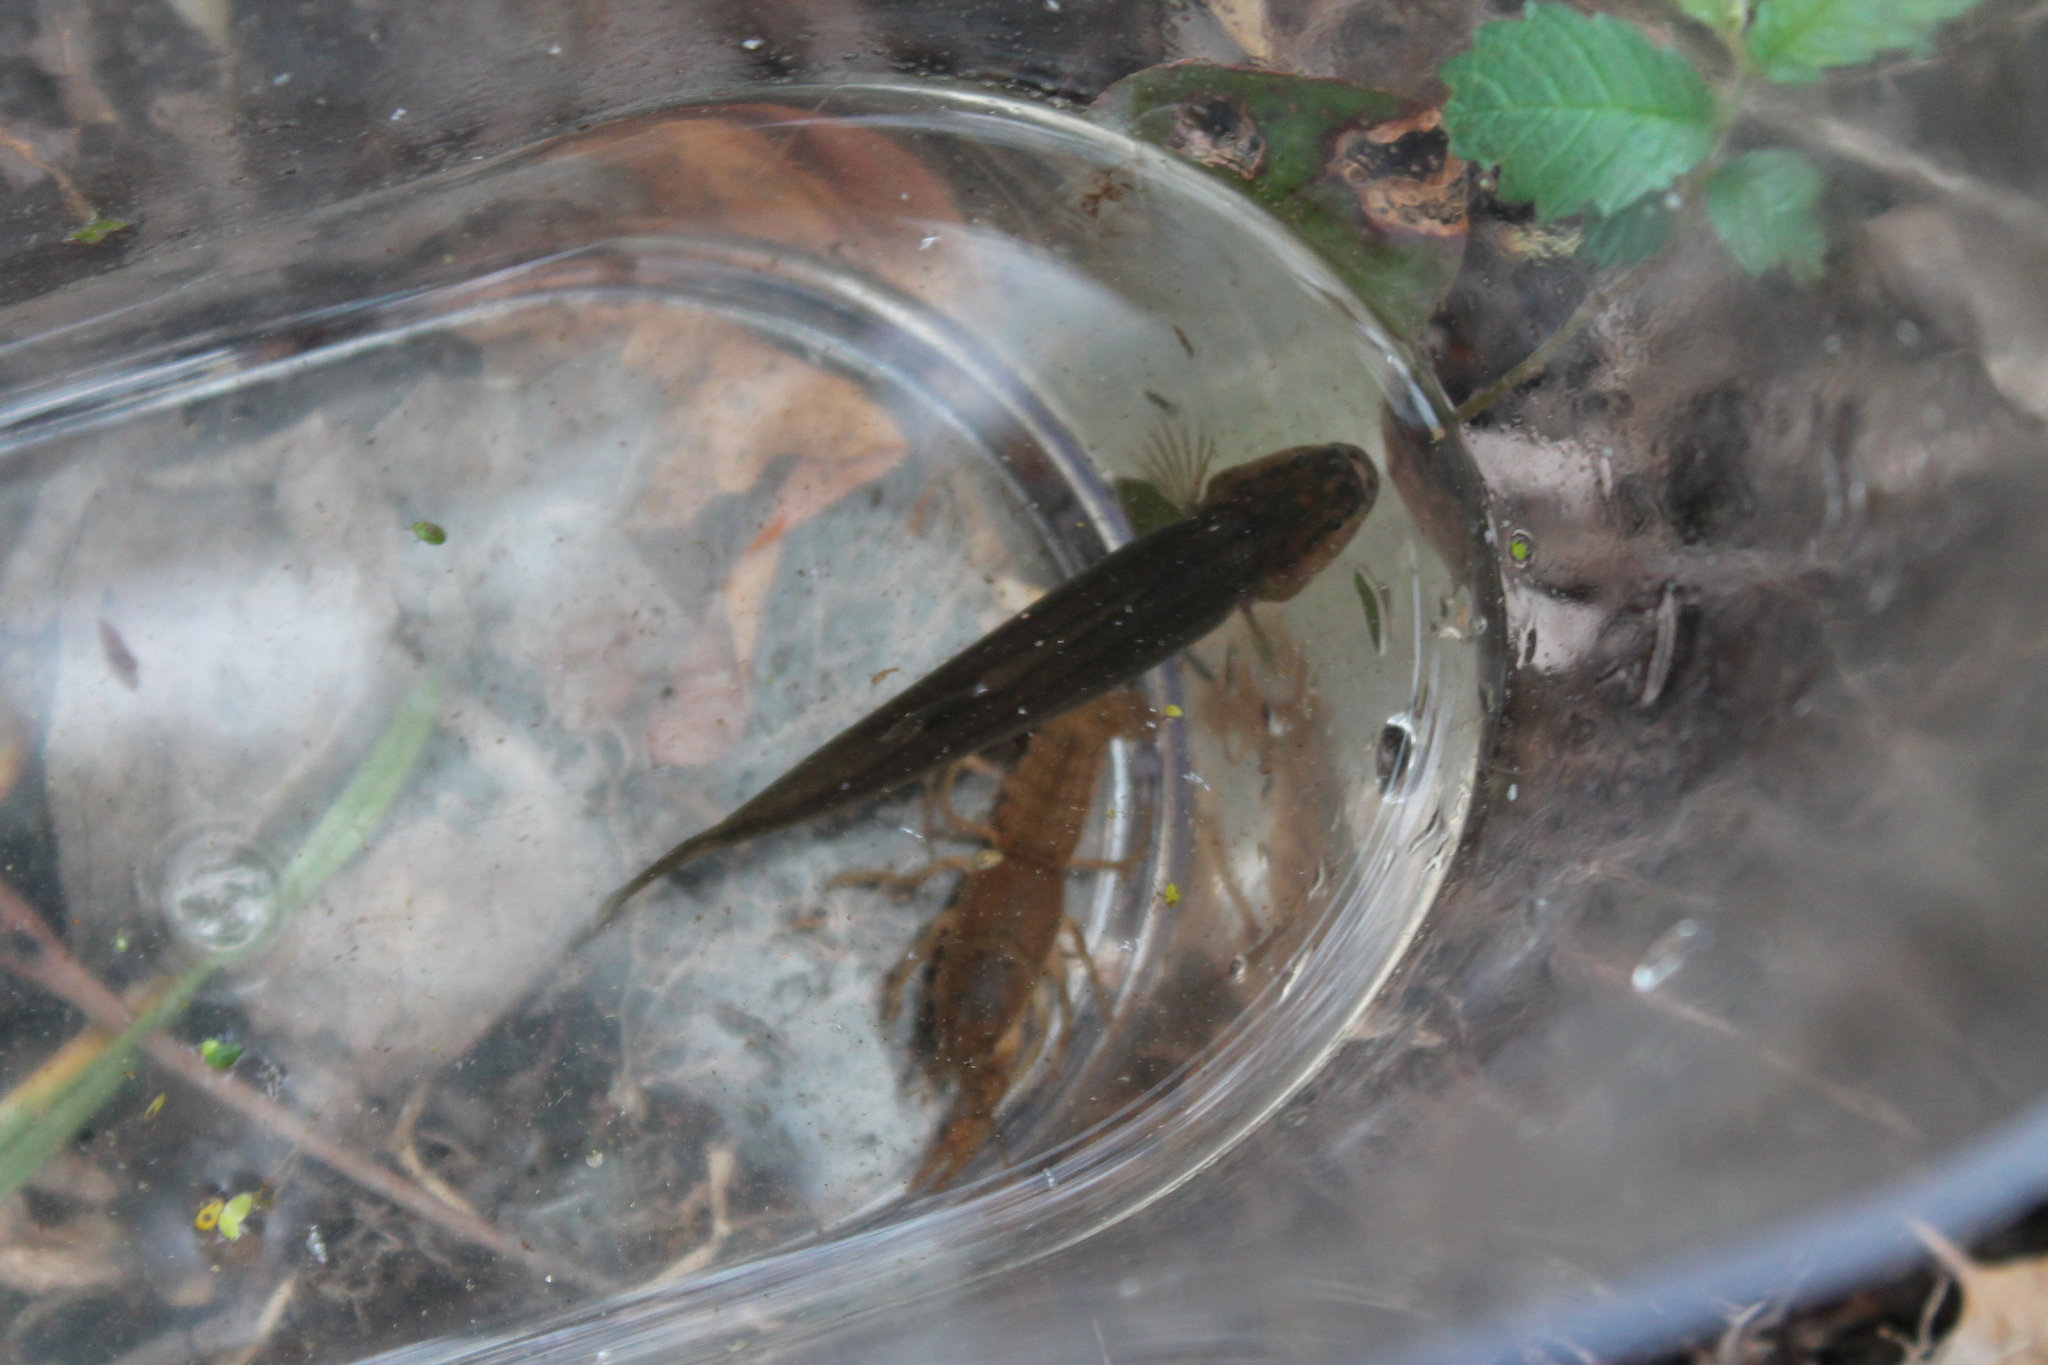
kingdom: Animalia
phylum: Chordata
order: Percopsiformes
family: Amblyopsidae
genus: Forbesichthys
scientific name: Forbesichthys
